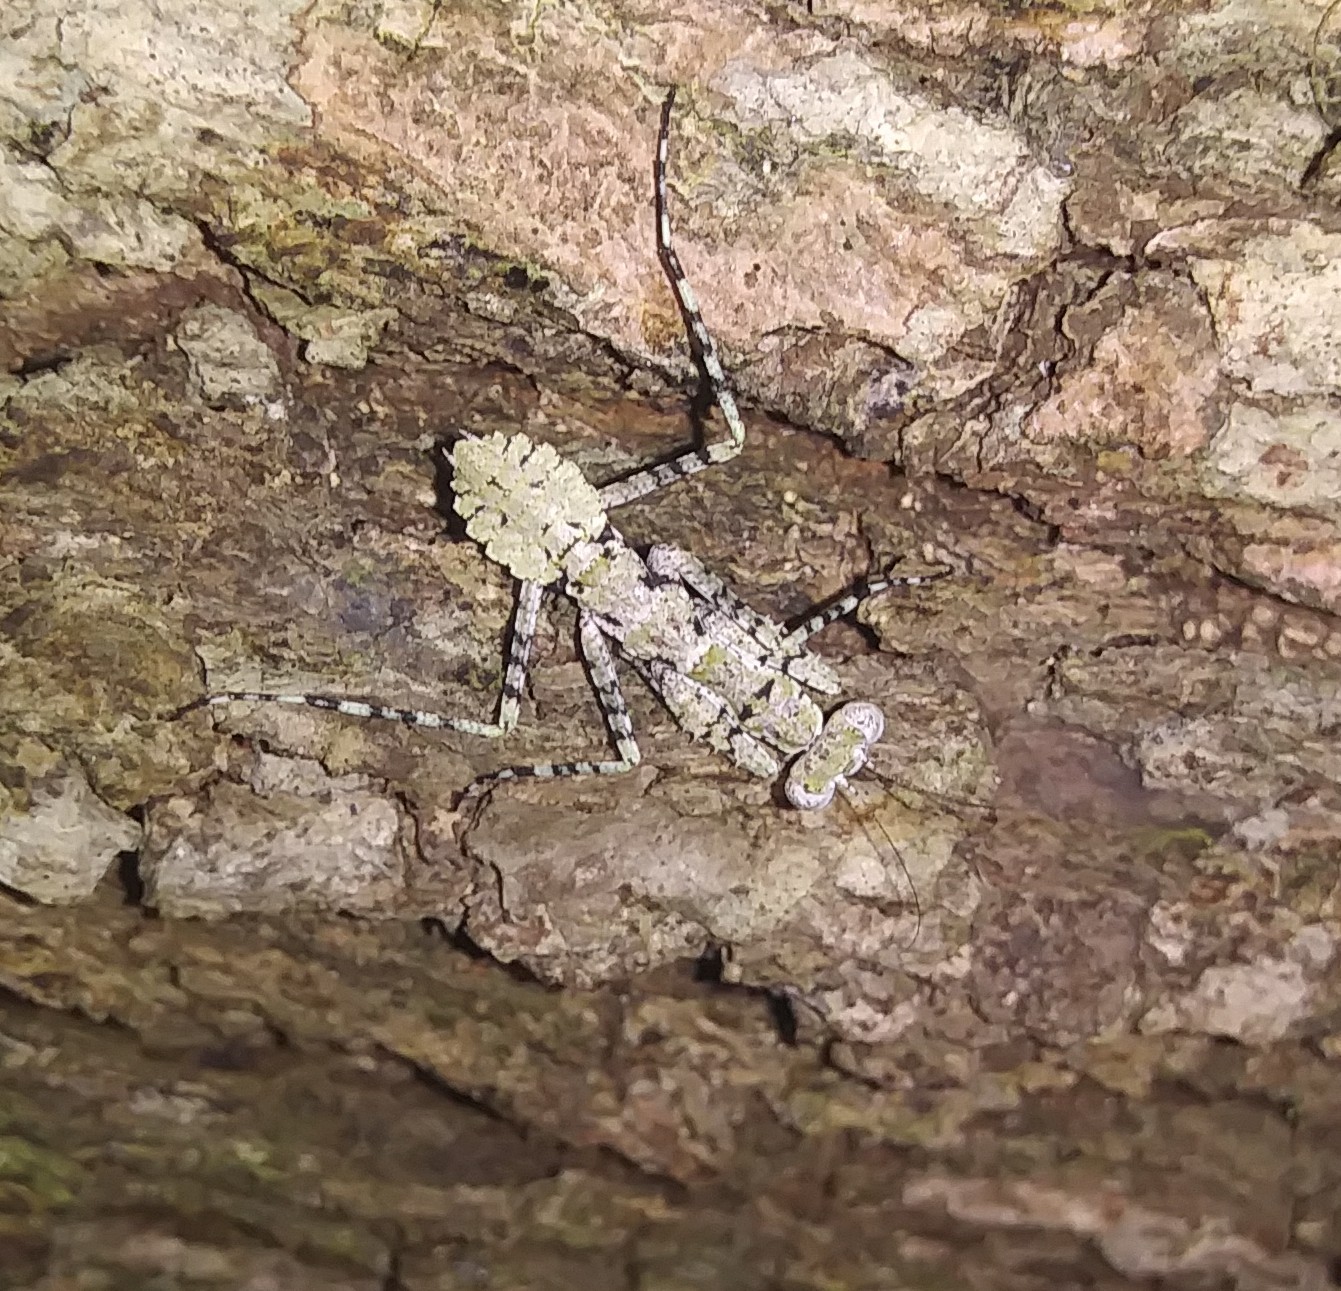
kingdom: Animalia
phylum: Arthropoda
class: Insecta
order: Mantodea
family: Epaphroditidae
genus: Gonatista
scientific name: Gonatista grisea
